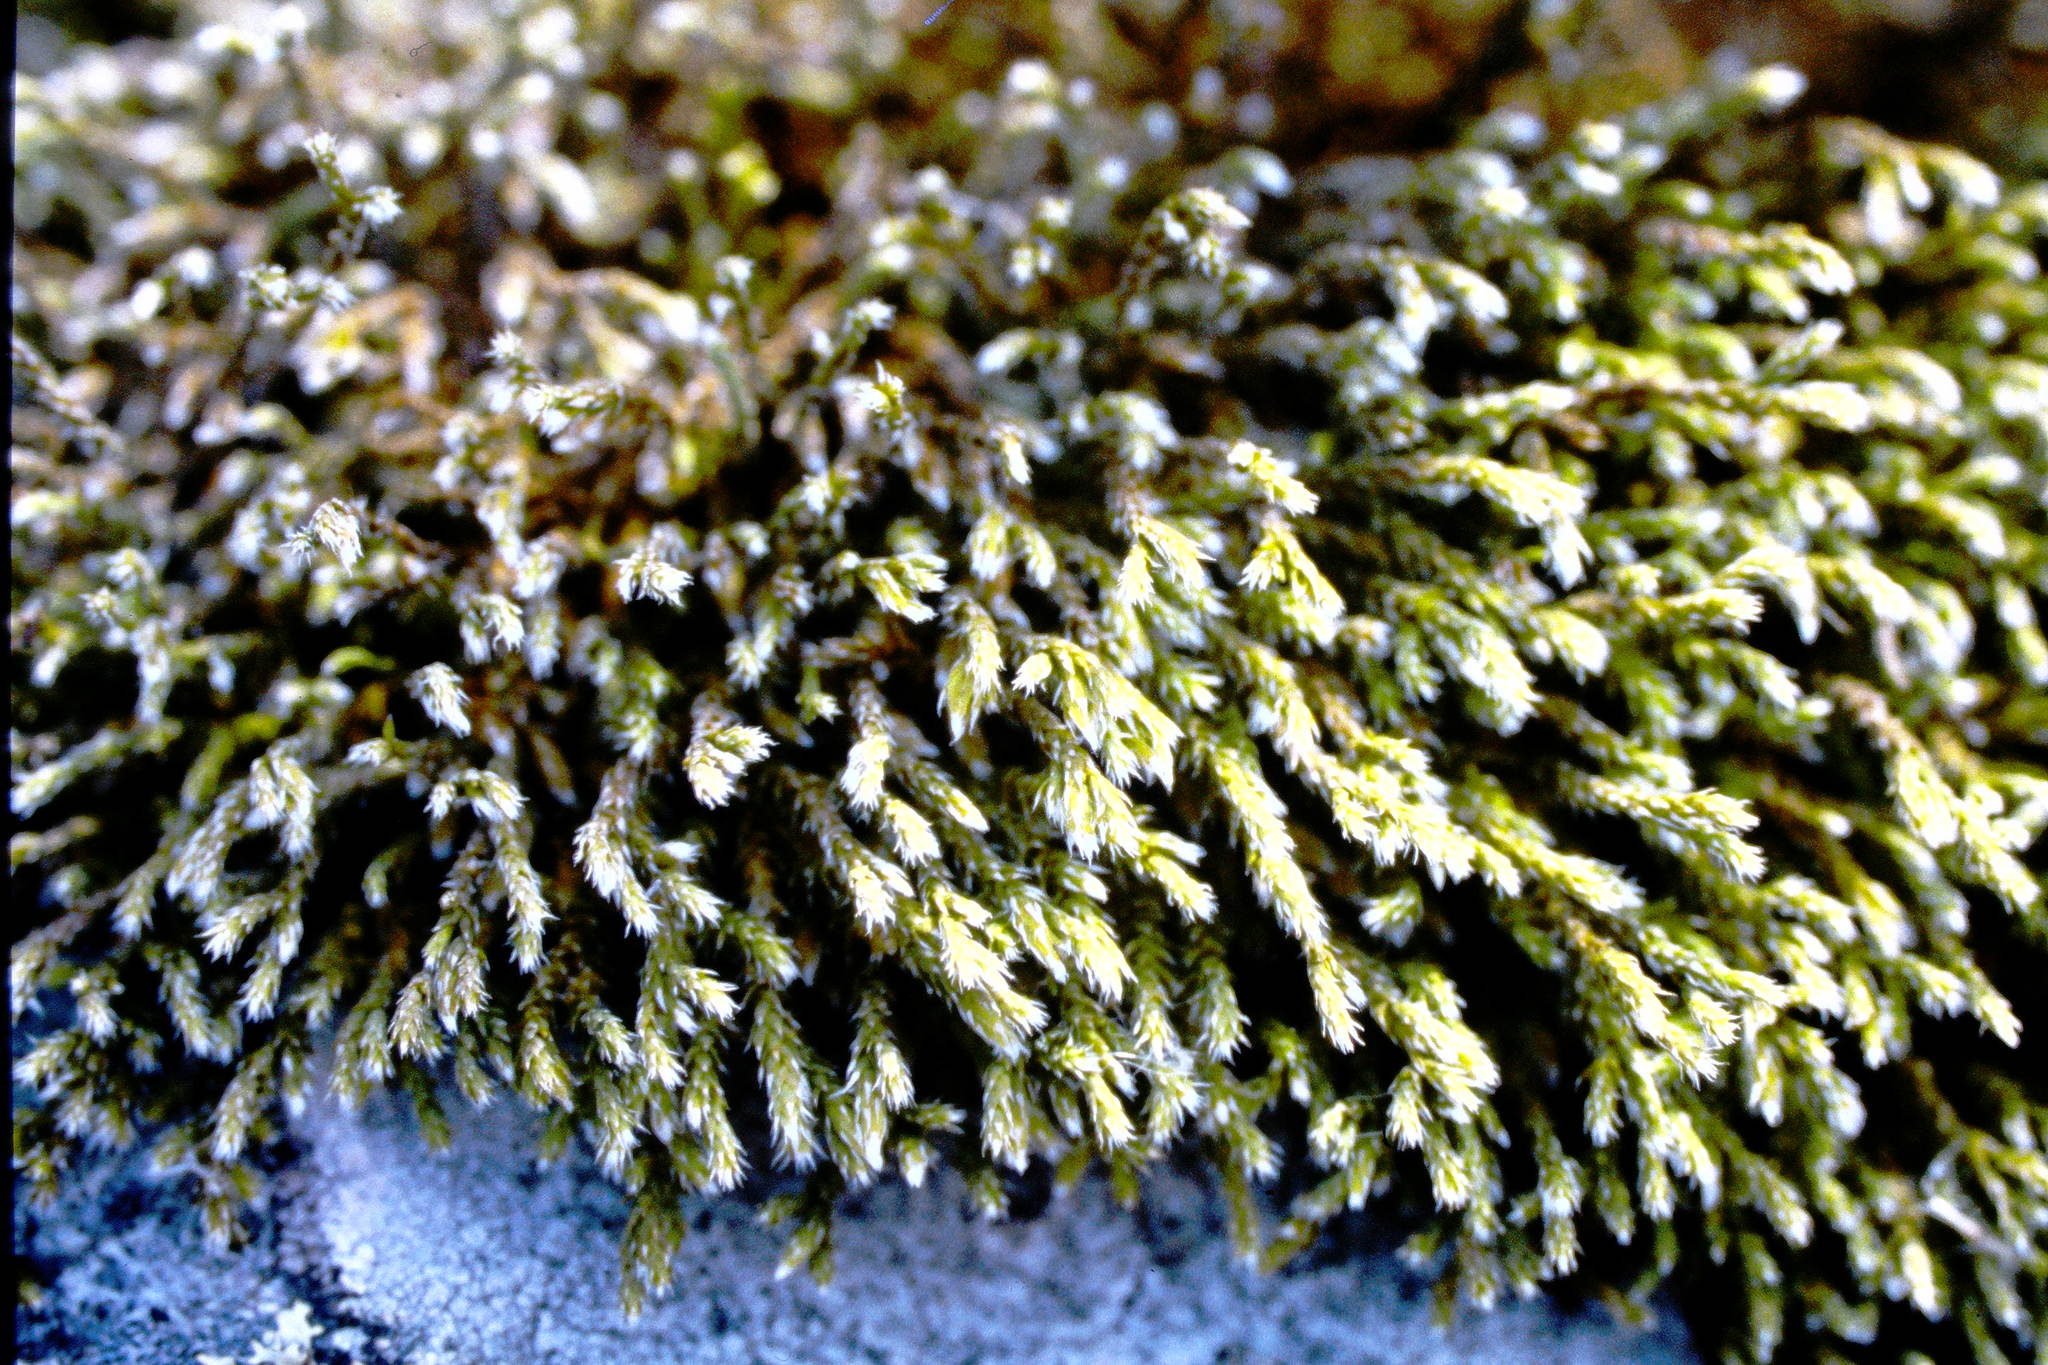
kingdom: Plantae
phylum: Bryophyta
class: Bryopsida
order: Hedwigiales
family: Hedwigiaceae
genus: Hedwigia
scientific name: Hedwigia ciliata
